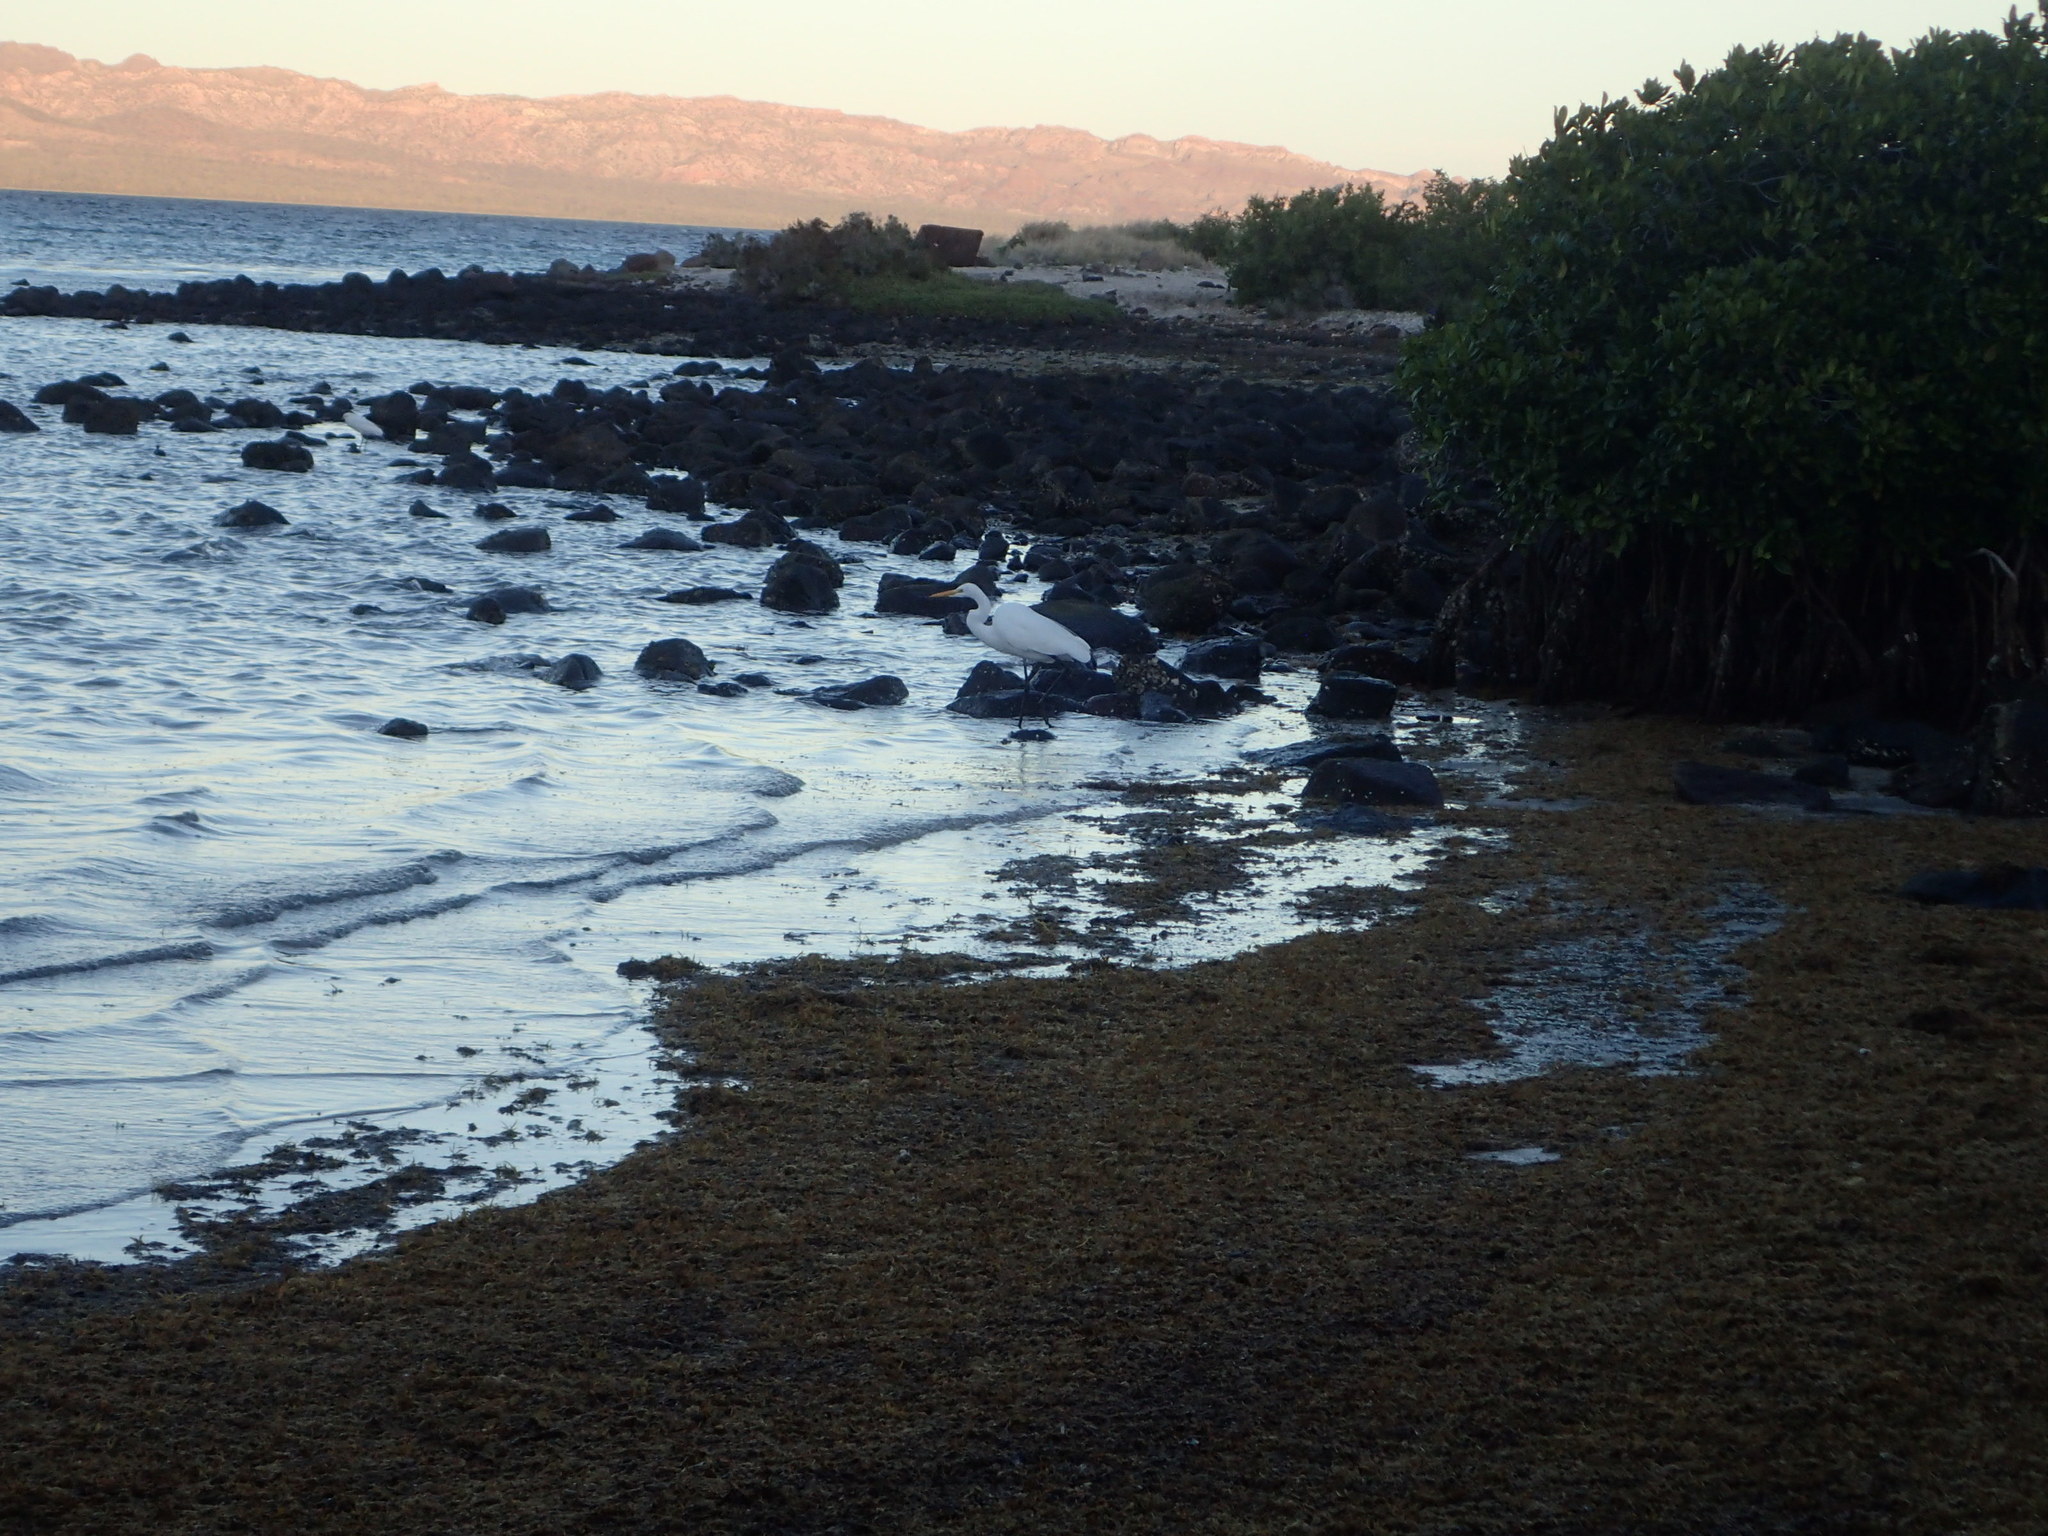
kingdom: Animalia
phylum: Chordata
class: Aves
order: Pelecaniformes
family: Ardeidae
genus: Ardea
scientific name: Ardea alba
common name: Great egret
